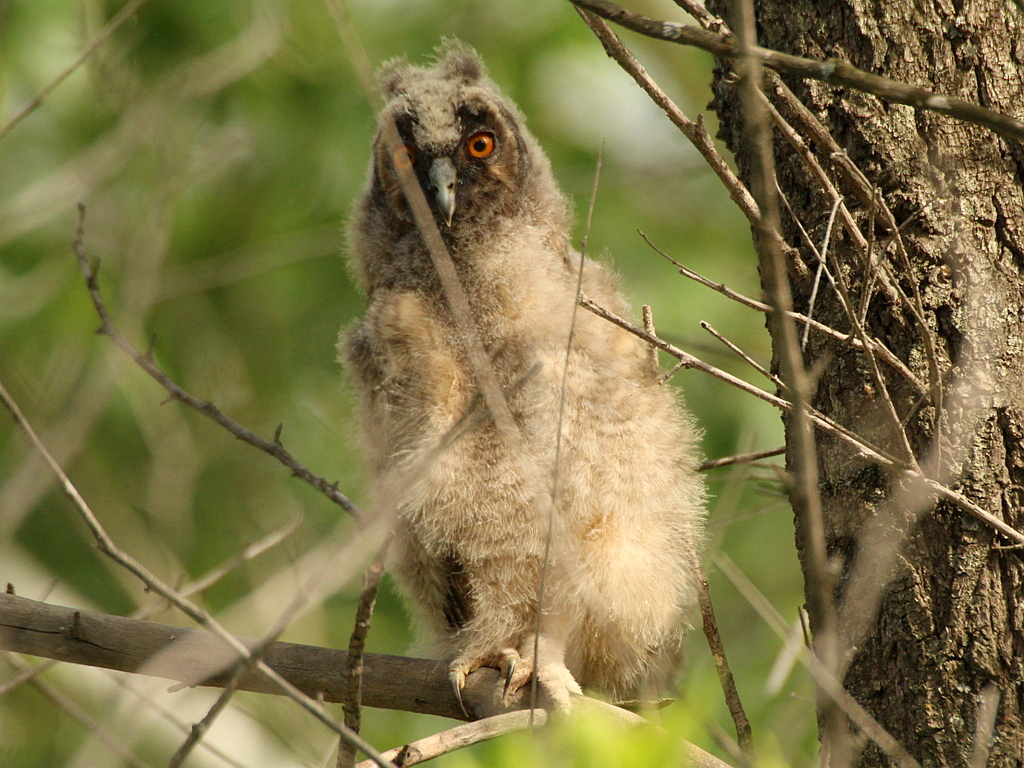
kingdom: Animalia
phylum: Chordata
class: Aves
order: Strigiformes
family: Strigidae
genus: Asio
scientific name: Asio otus
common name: Long-eared owl
